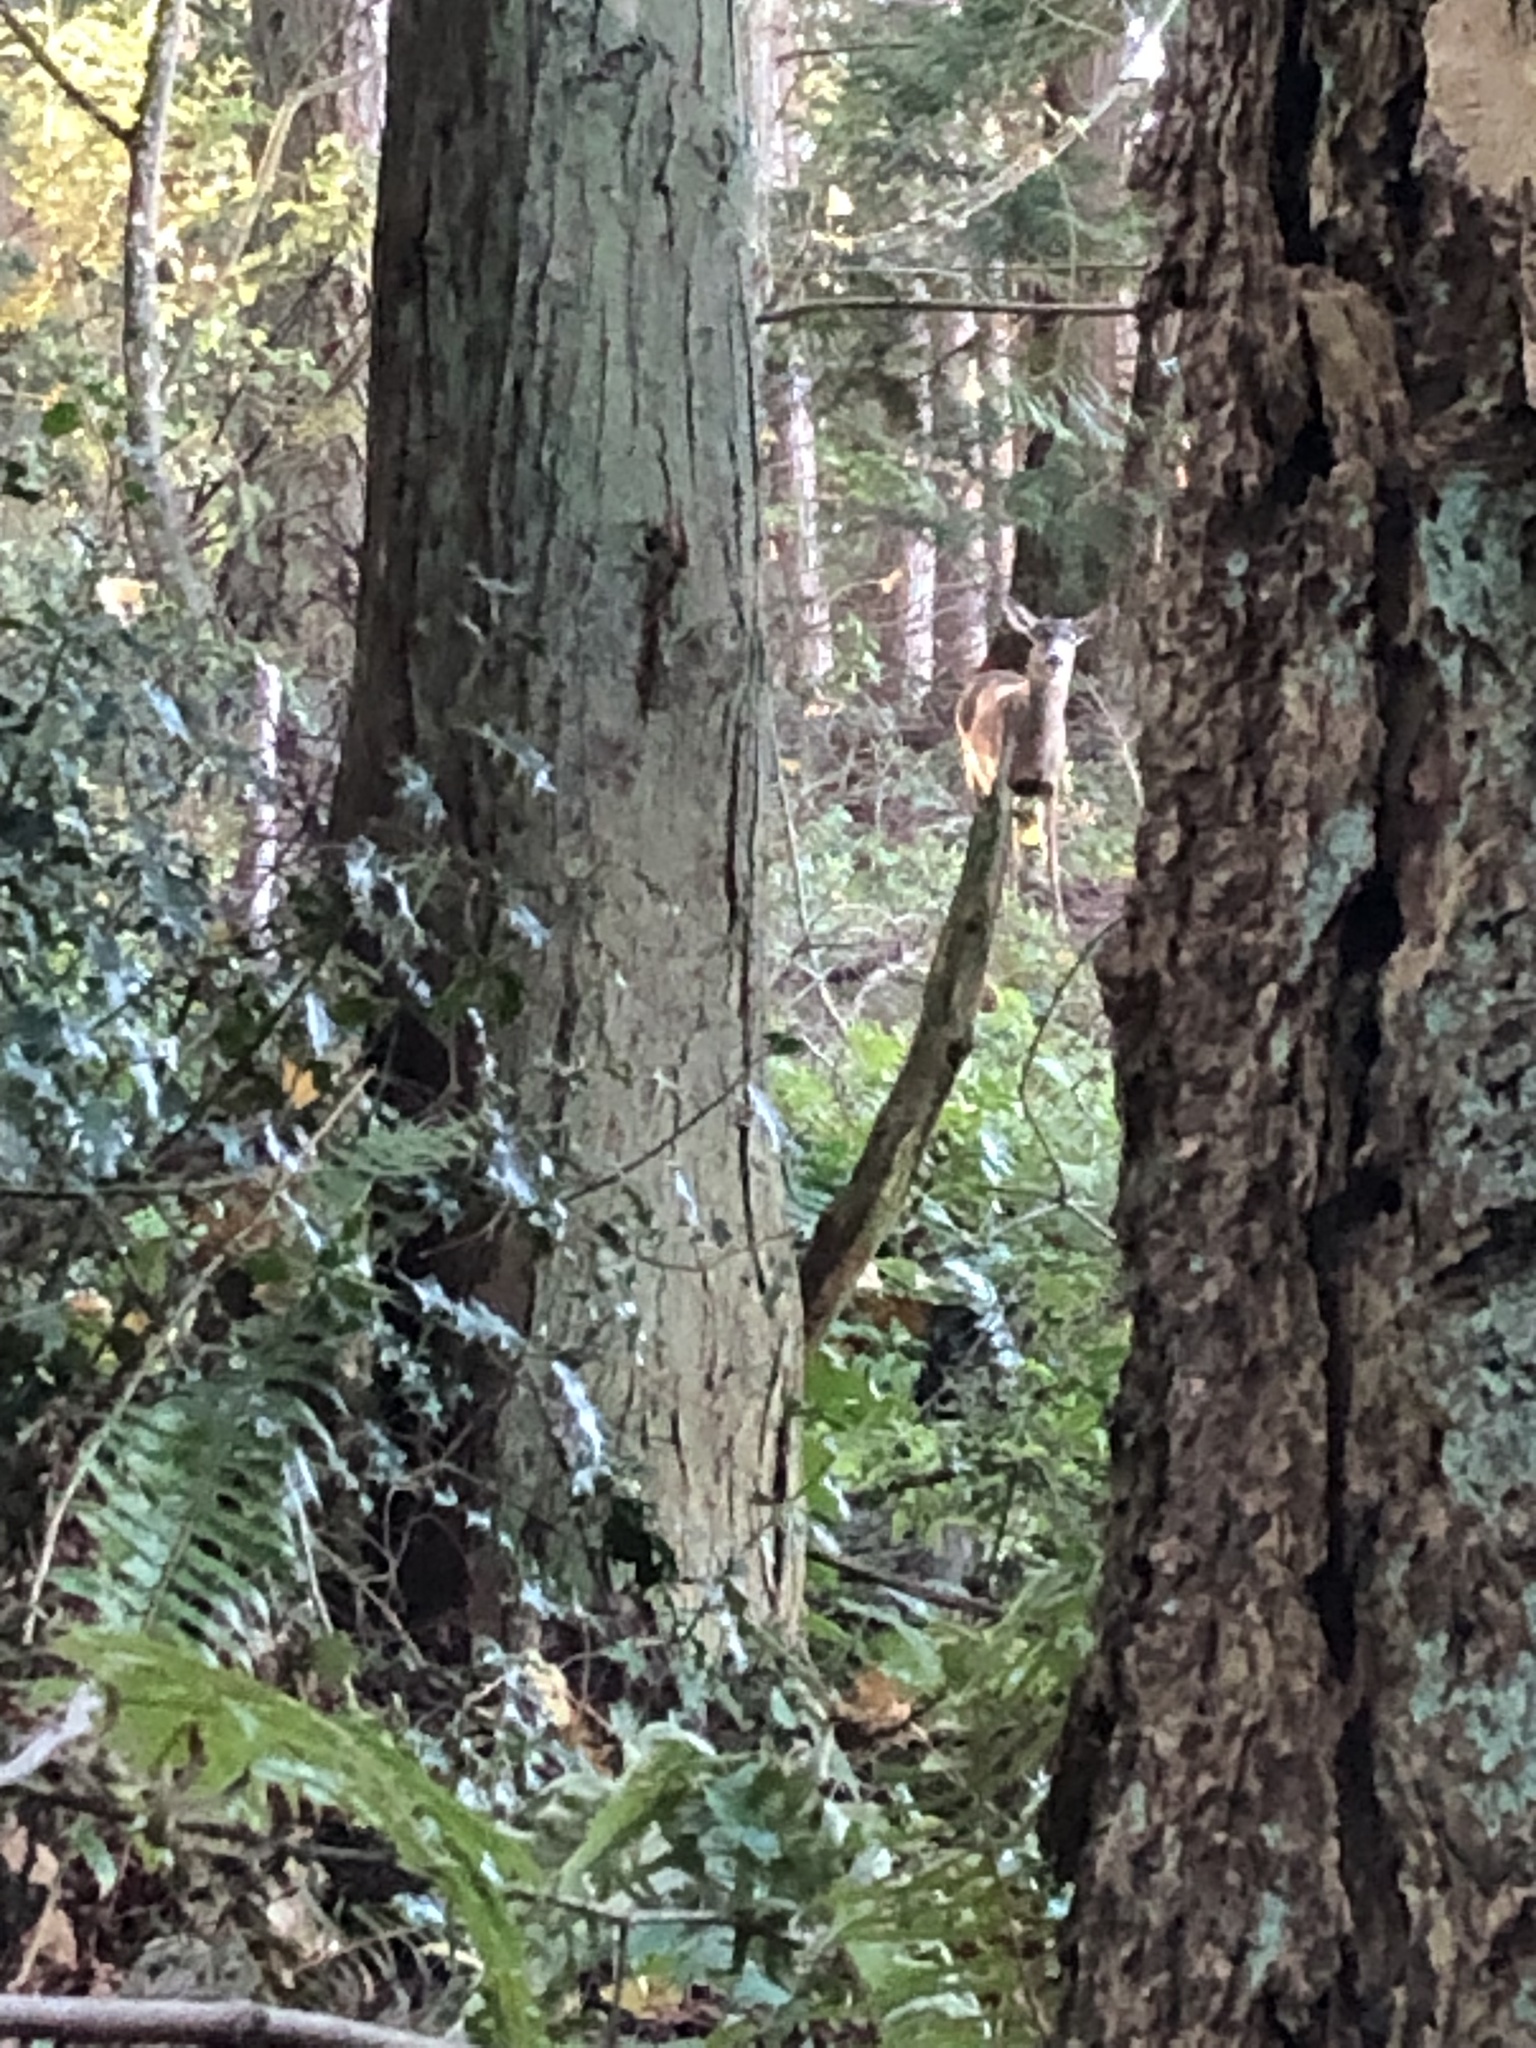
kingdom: Animalia
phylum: Chordata
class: Mammalia
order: Artiodactyla
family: Cervidae
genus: Odocoileus
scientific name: Odocoileus hemionus
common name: Mule deer
